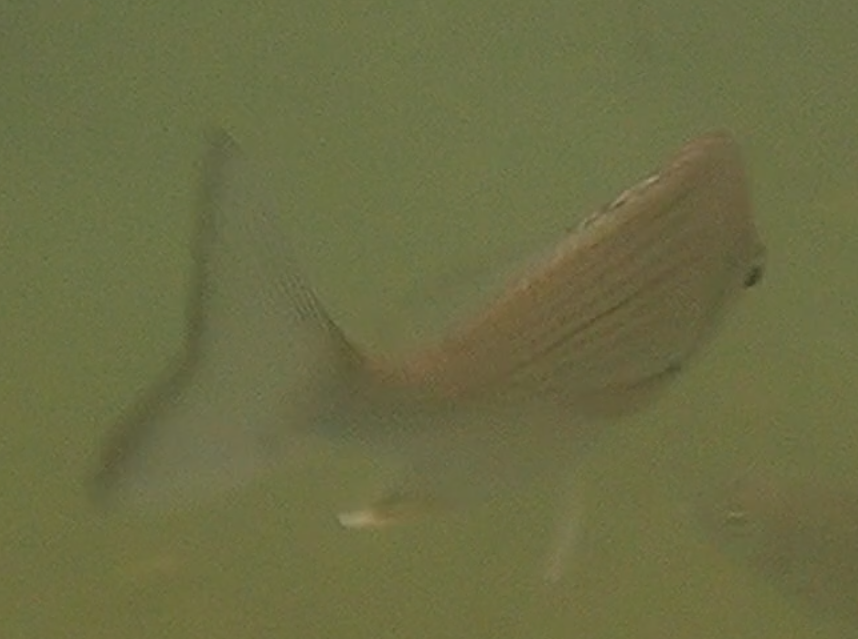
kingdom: Animalia
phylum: Chordata
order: Perciformes
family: Sparidae
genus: Acanthopagrus
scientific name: Acanthopagrus australis
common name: Surf bream
